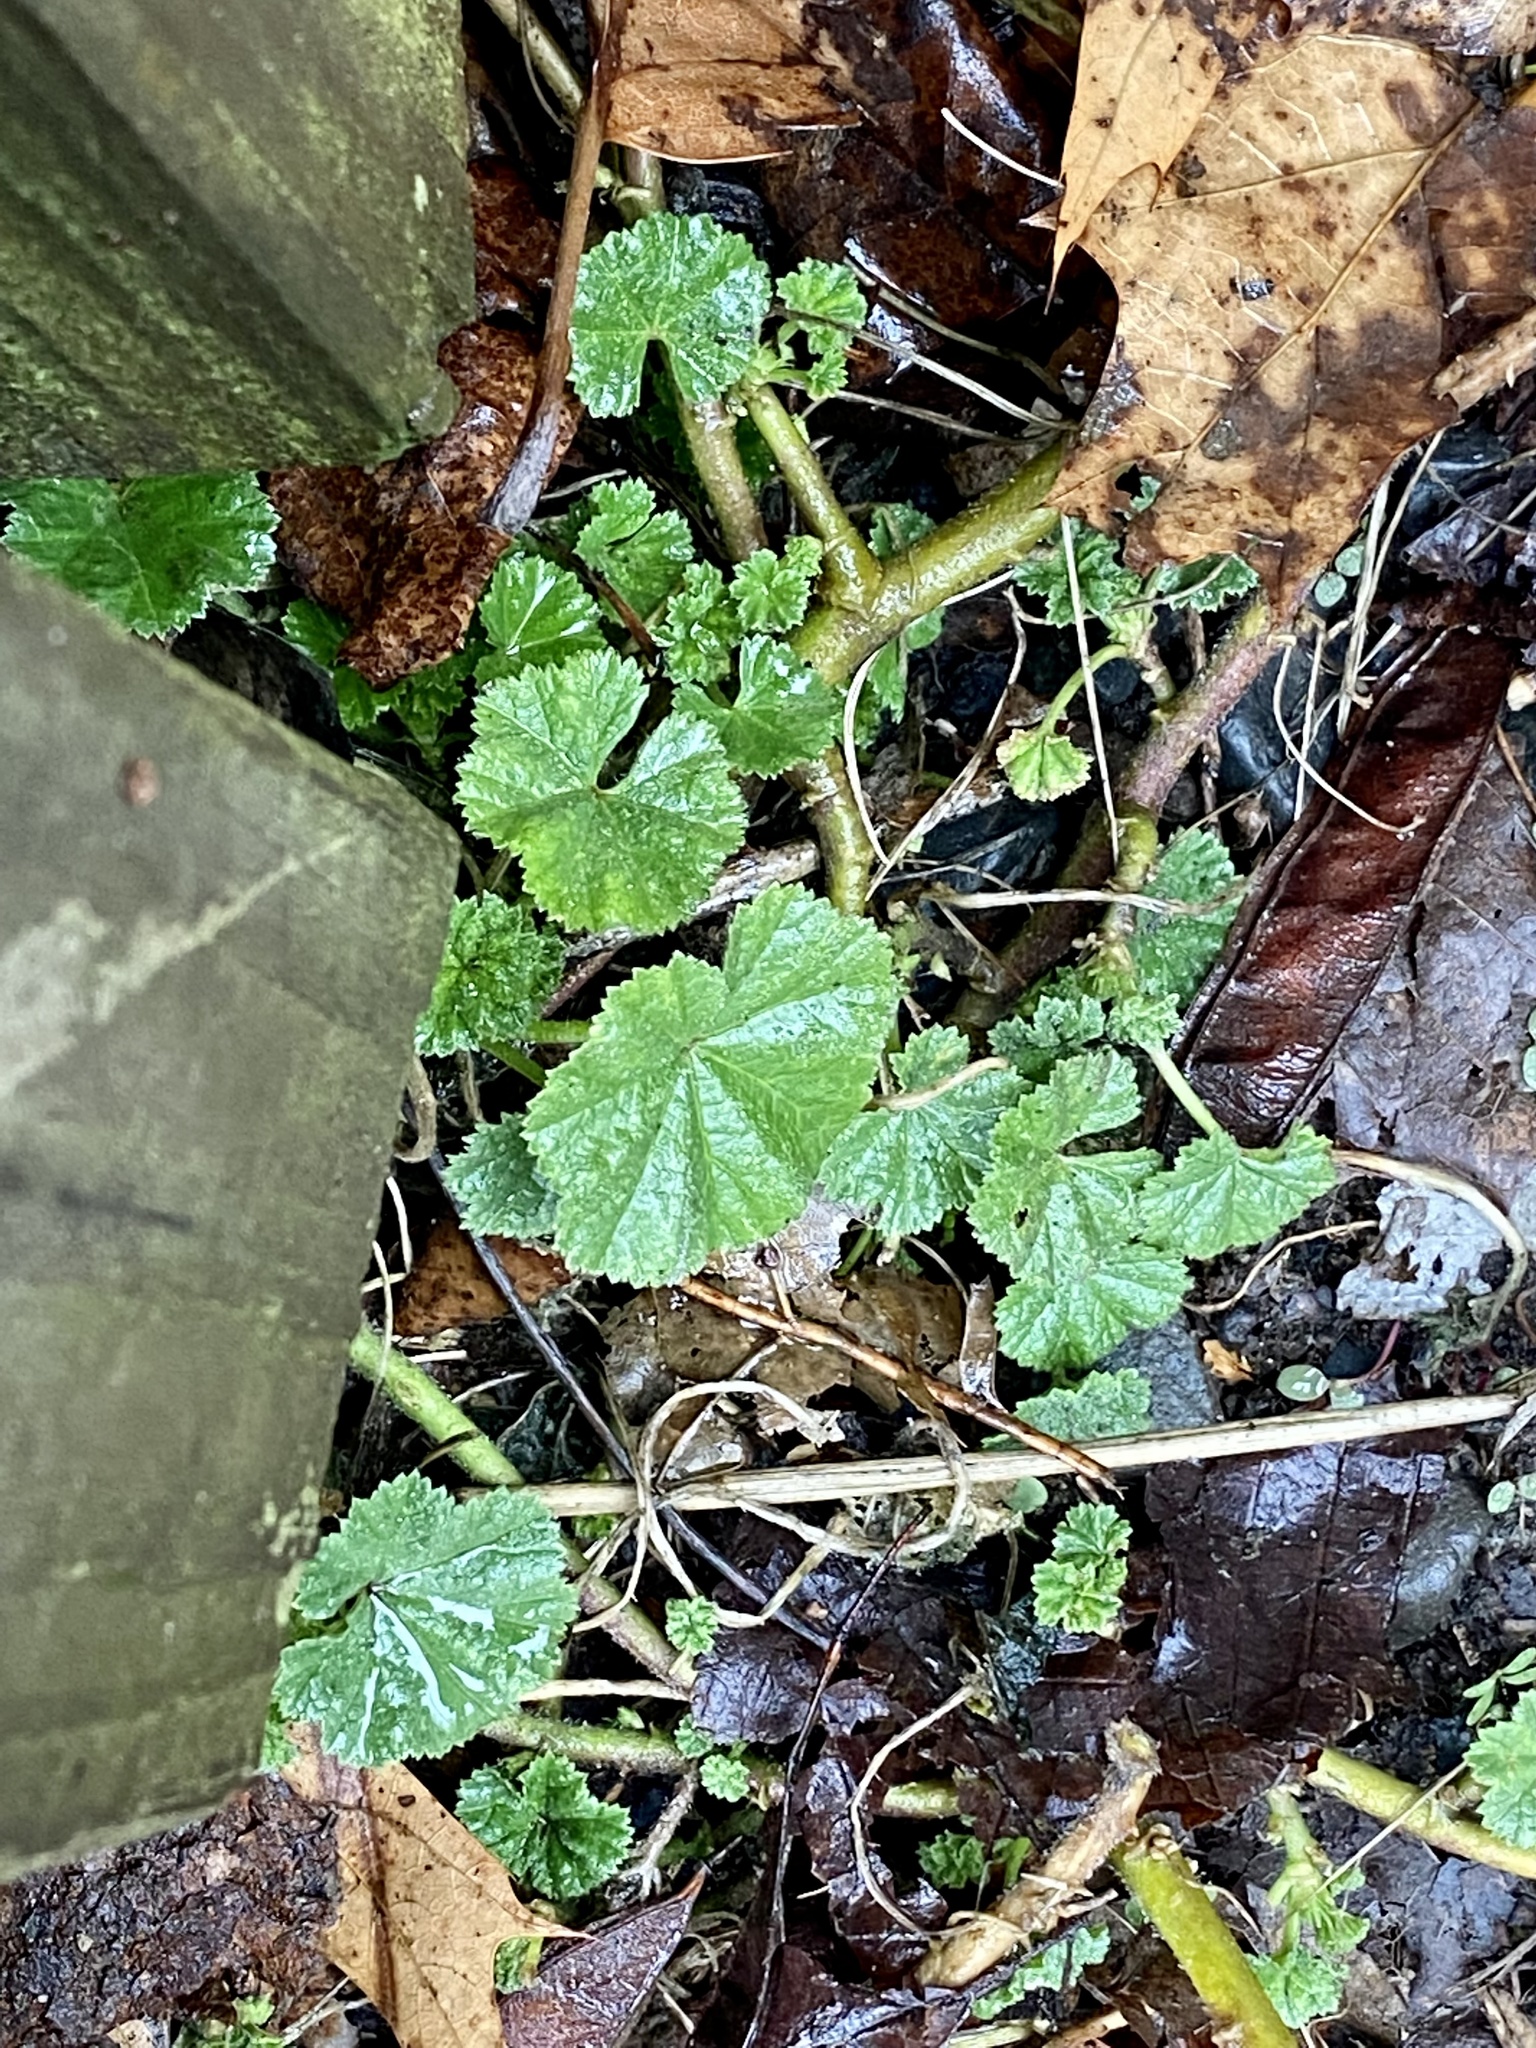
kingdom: Plantae
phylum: Tracheophyta
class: Magnoliopsida
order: Malvales
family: Malvaceae
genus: Malva
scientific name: Malva neglecta
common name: Common mallow
